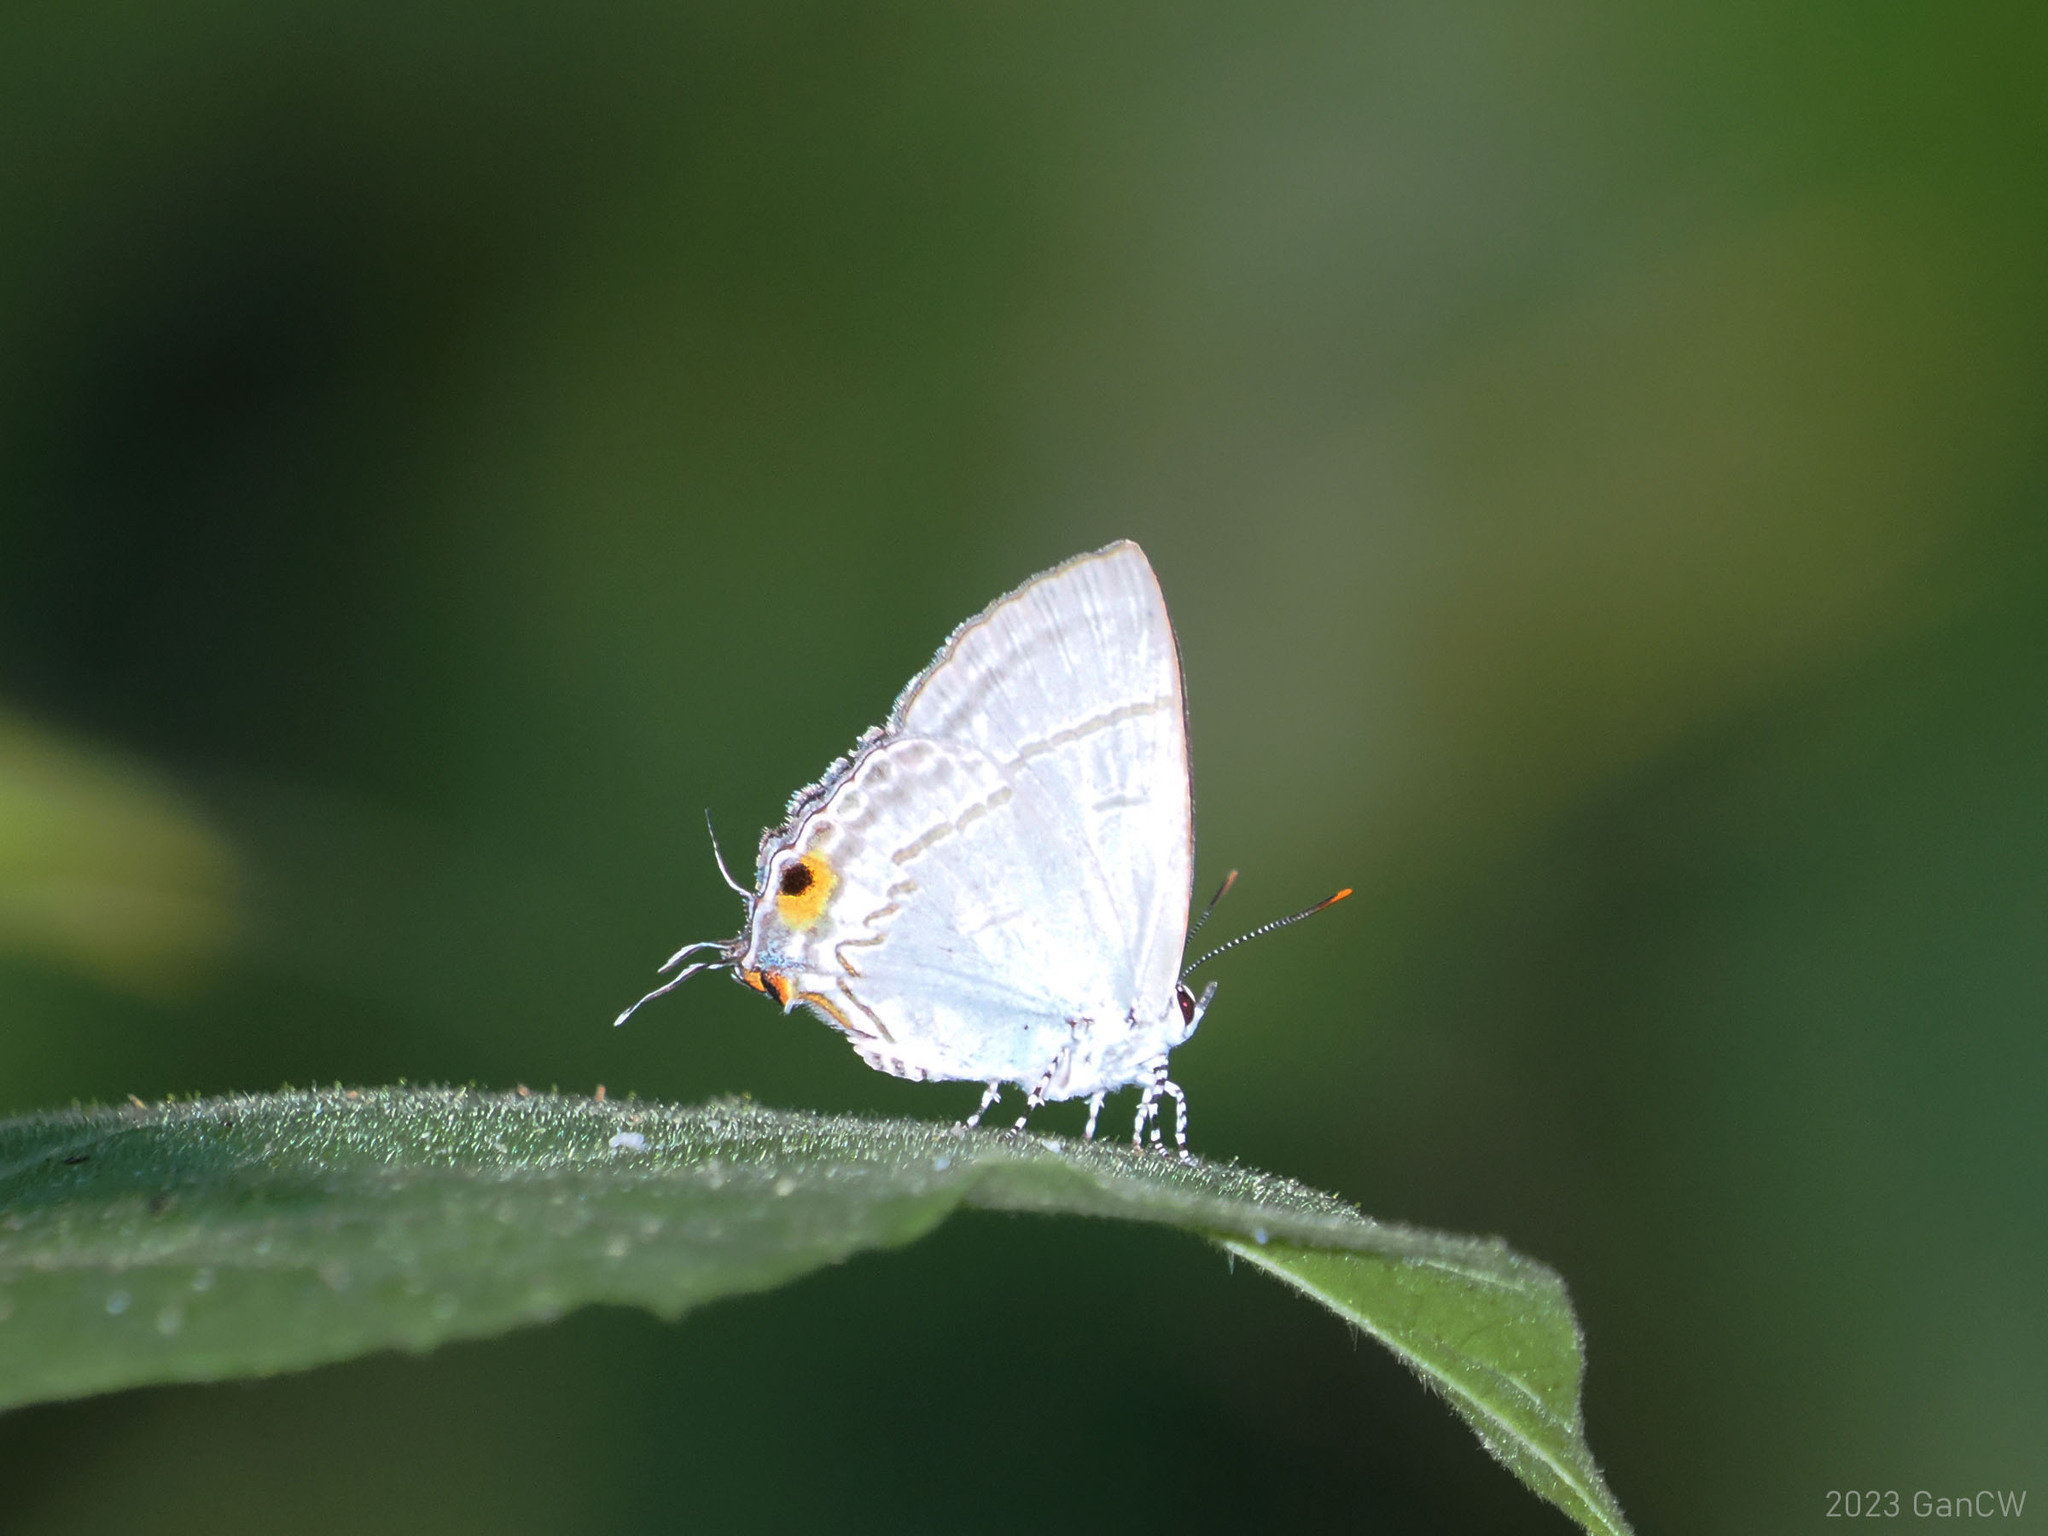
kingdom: Animalia
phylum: Arthropoda
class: Insecta
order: Lepidoptera
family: Lycaenidae
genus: Hypolycaena
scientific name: Hypolycaena erylus
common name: Common tit
